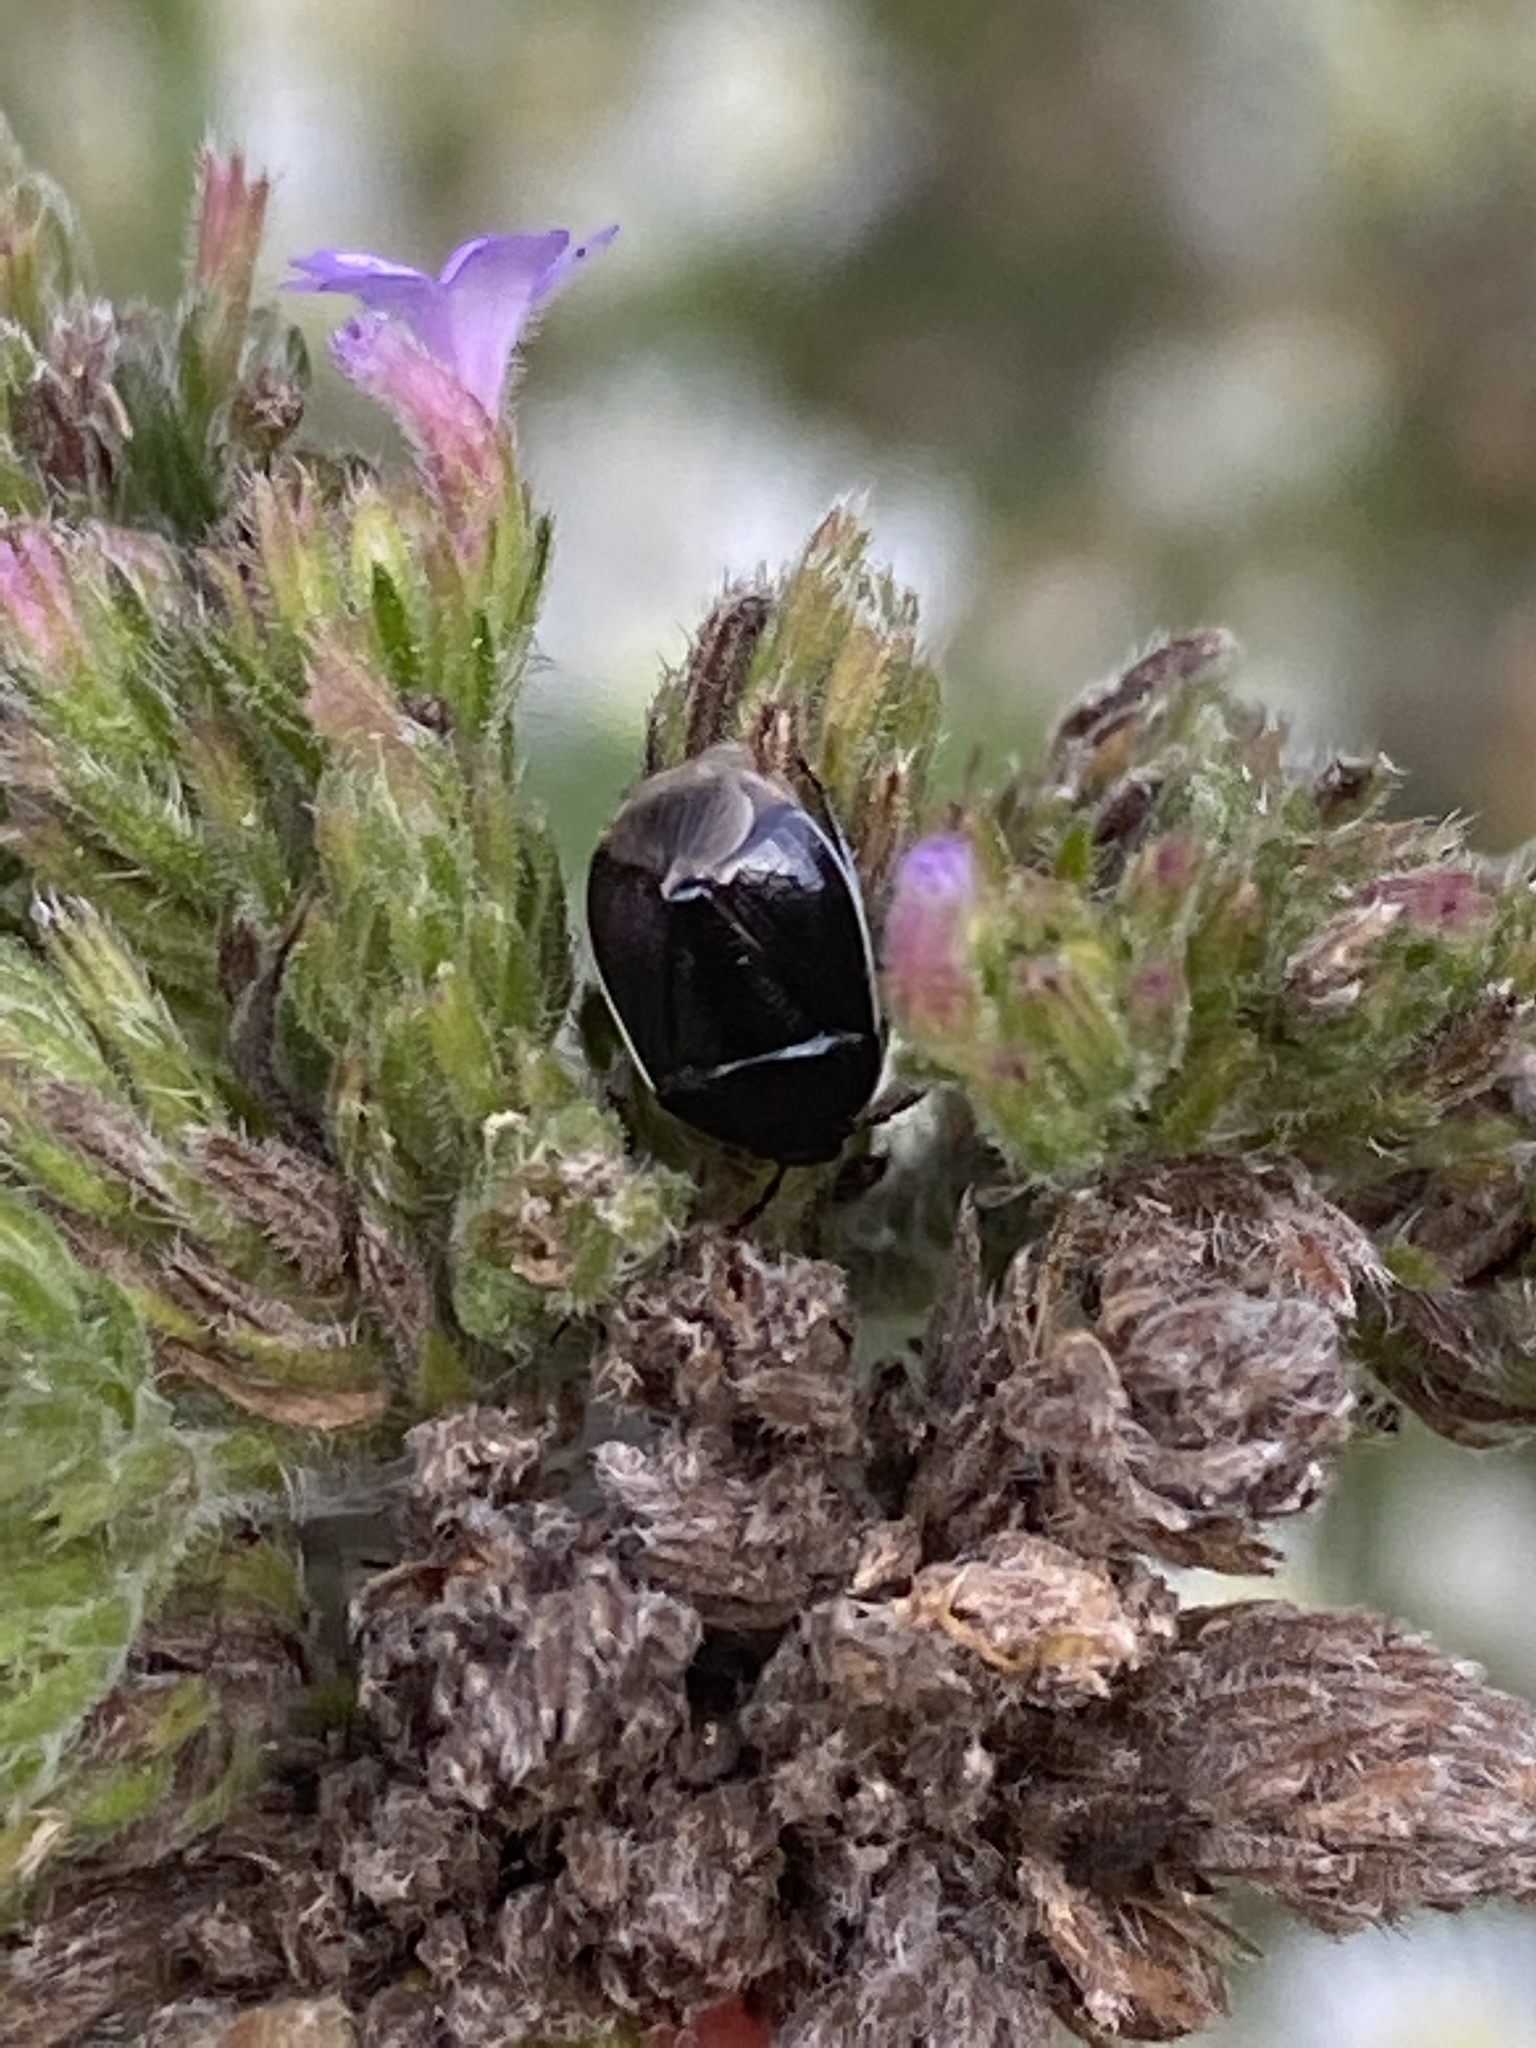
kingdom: Animalia
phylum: Arthropoda
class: Insecta
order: Hemiptera
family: Cydnidae
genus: Sehirus
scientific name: Sehirus cinctus
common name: White-margined burrower bug
